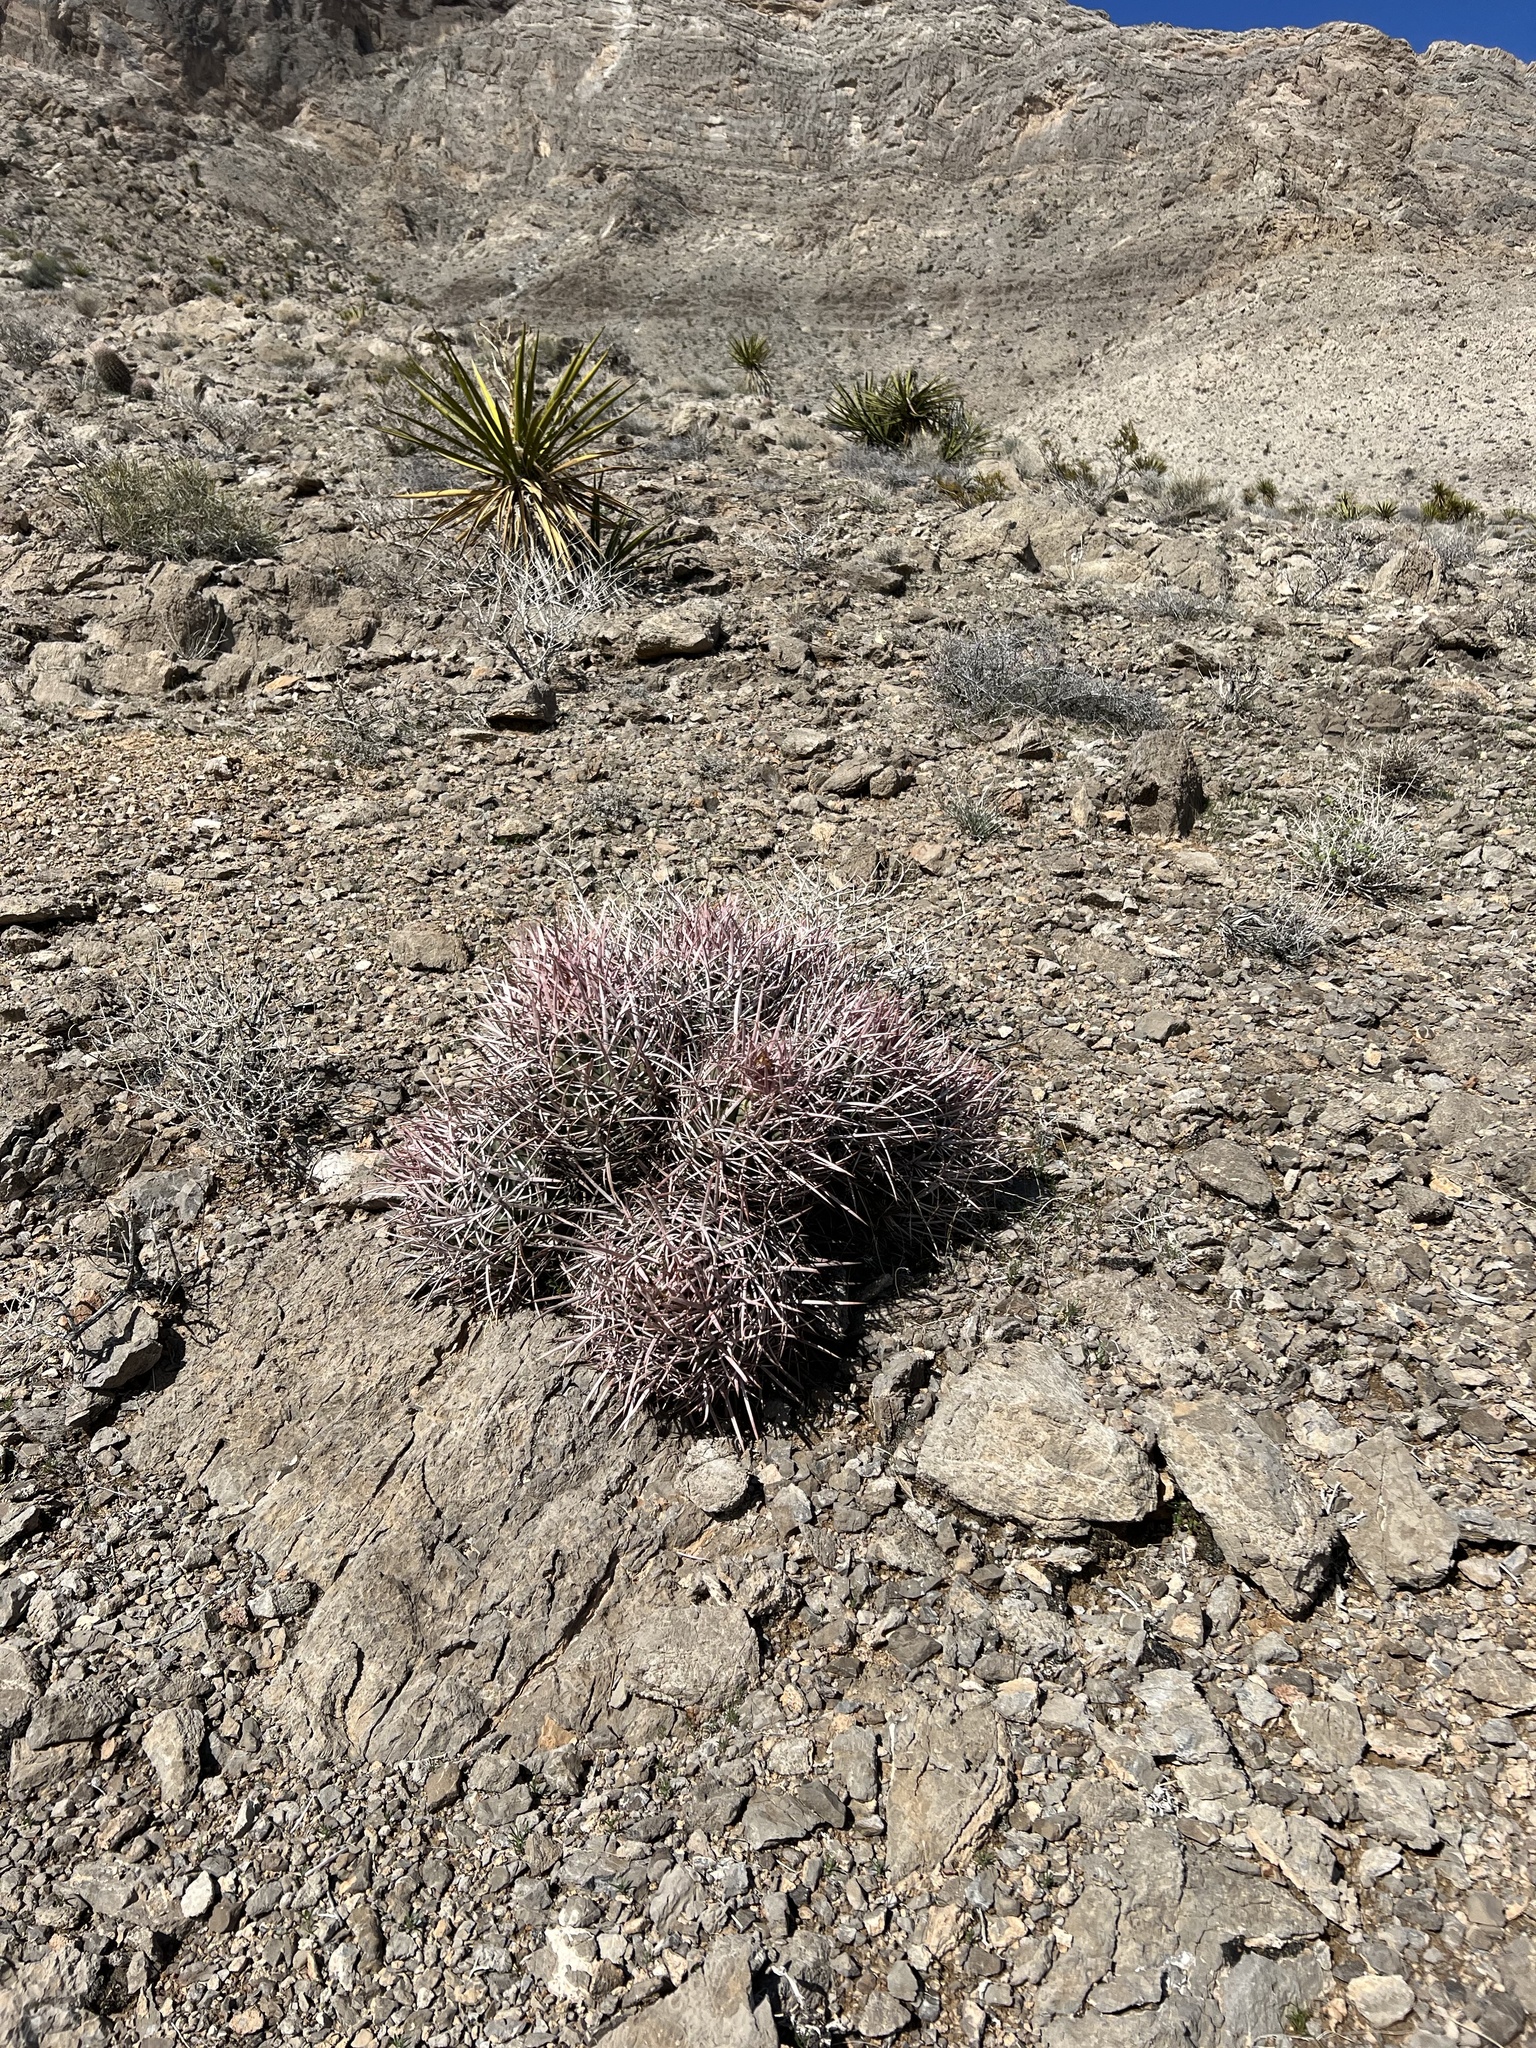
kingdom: Plantae
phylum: Tracheophyta
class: Magnoliopsida
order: Caryophyllales
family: Cactaceae
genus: Echinocactus
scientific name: Echinocactus polycephalus
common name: Cottontop cactus
